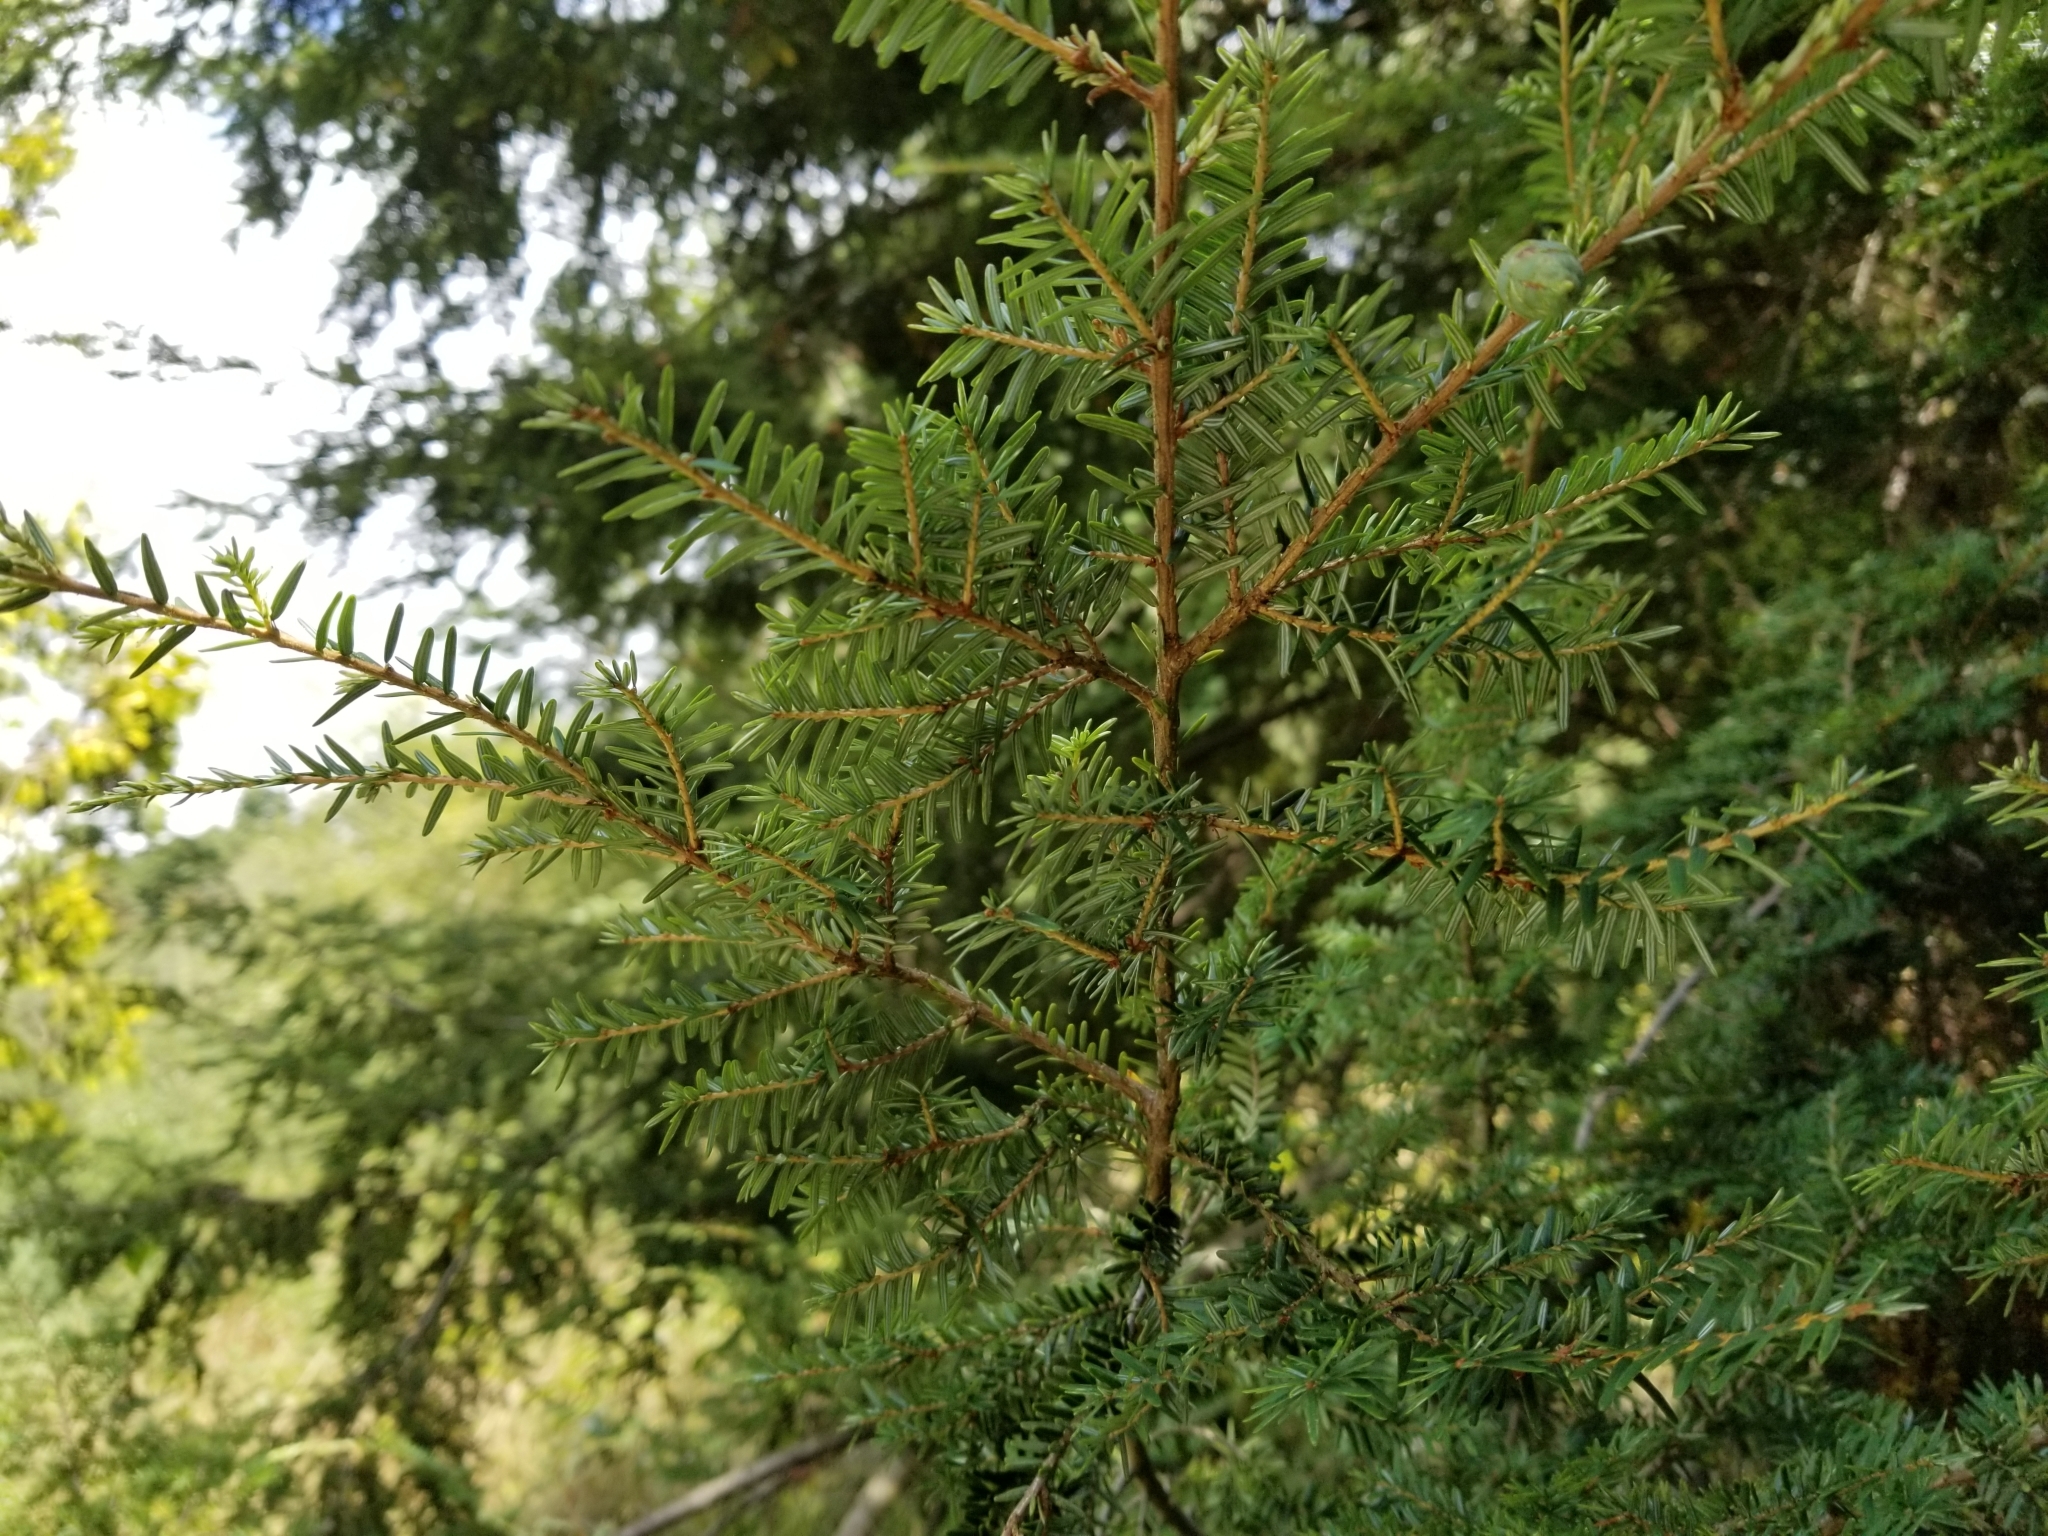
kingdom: Plantae
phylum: Tracheophyta
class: Pinopsida
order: Pinales
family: Pinaceae
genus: Tsuga
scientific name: Tsuga heterophylla
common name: Western hemlock
